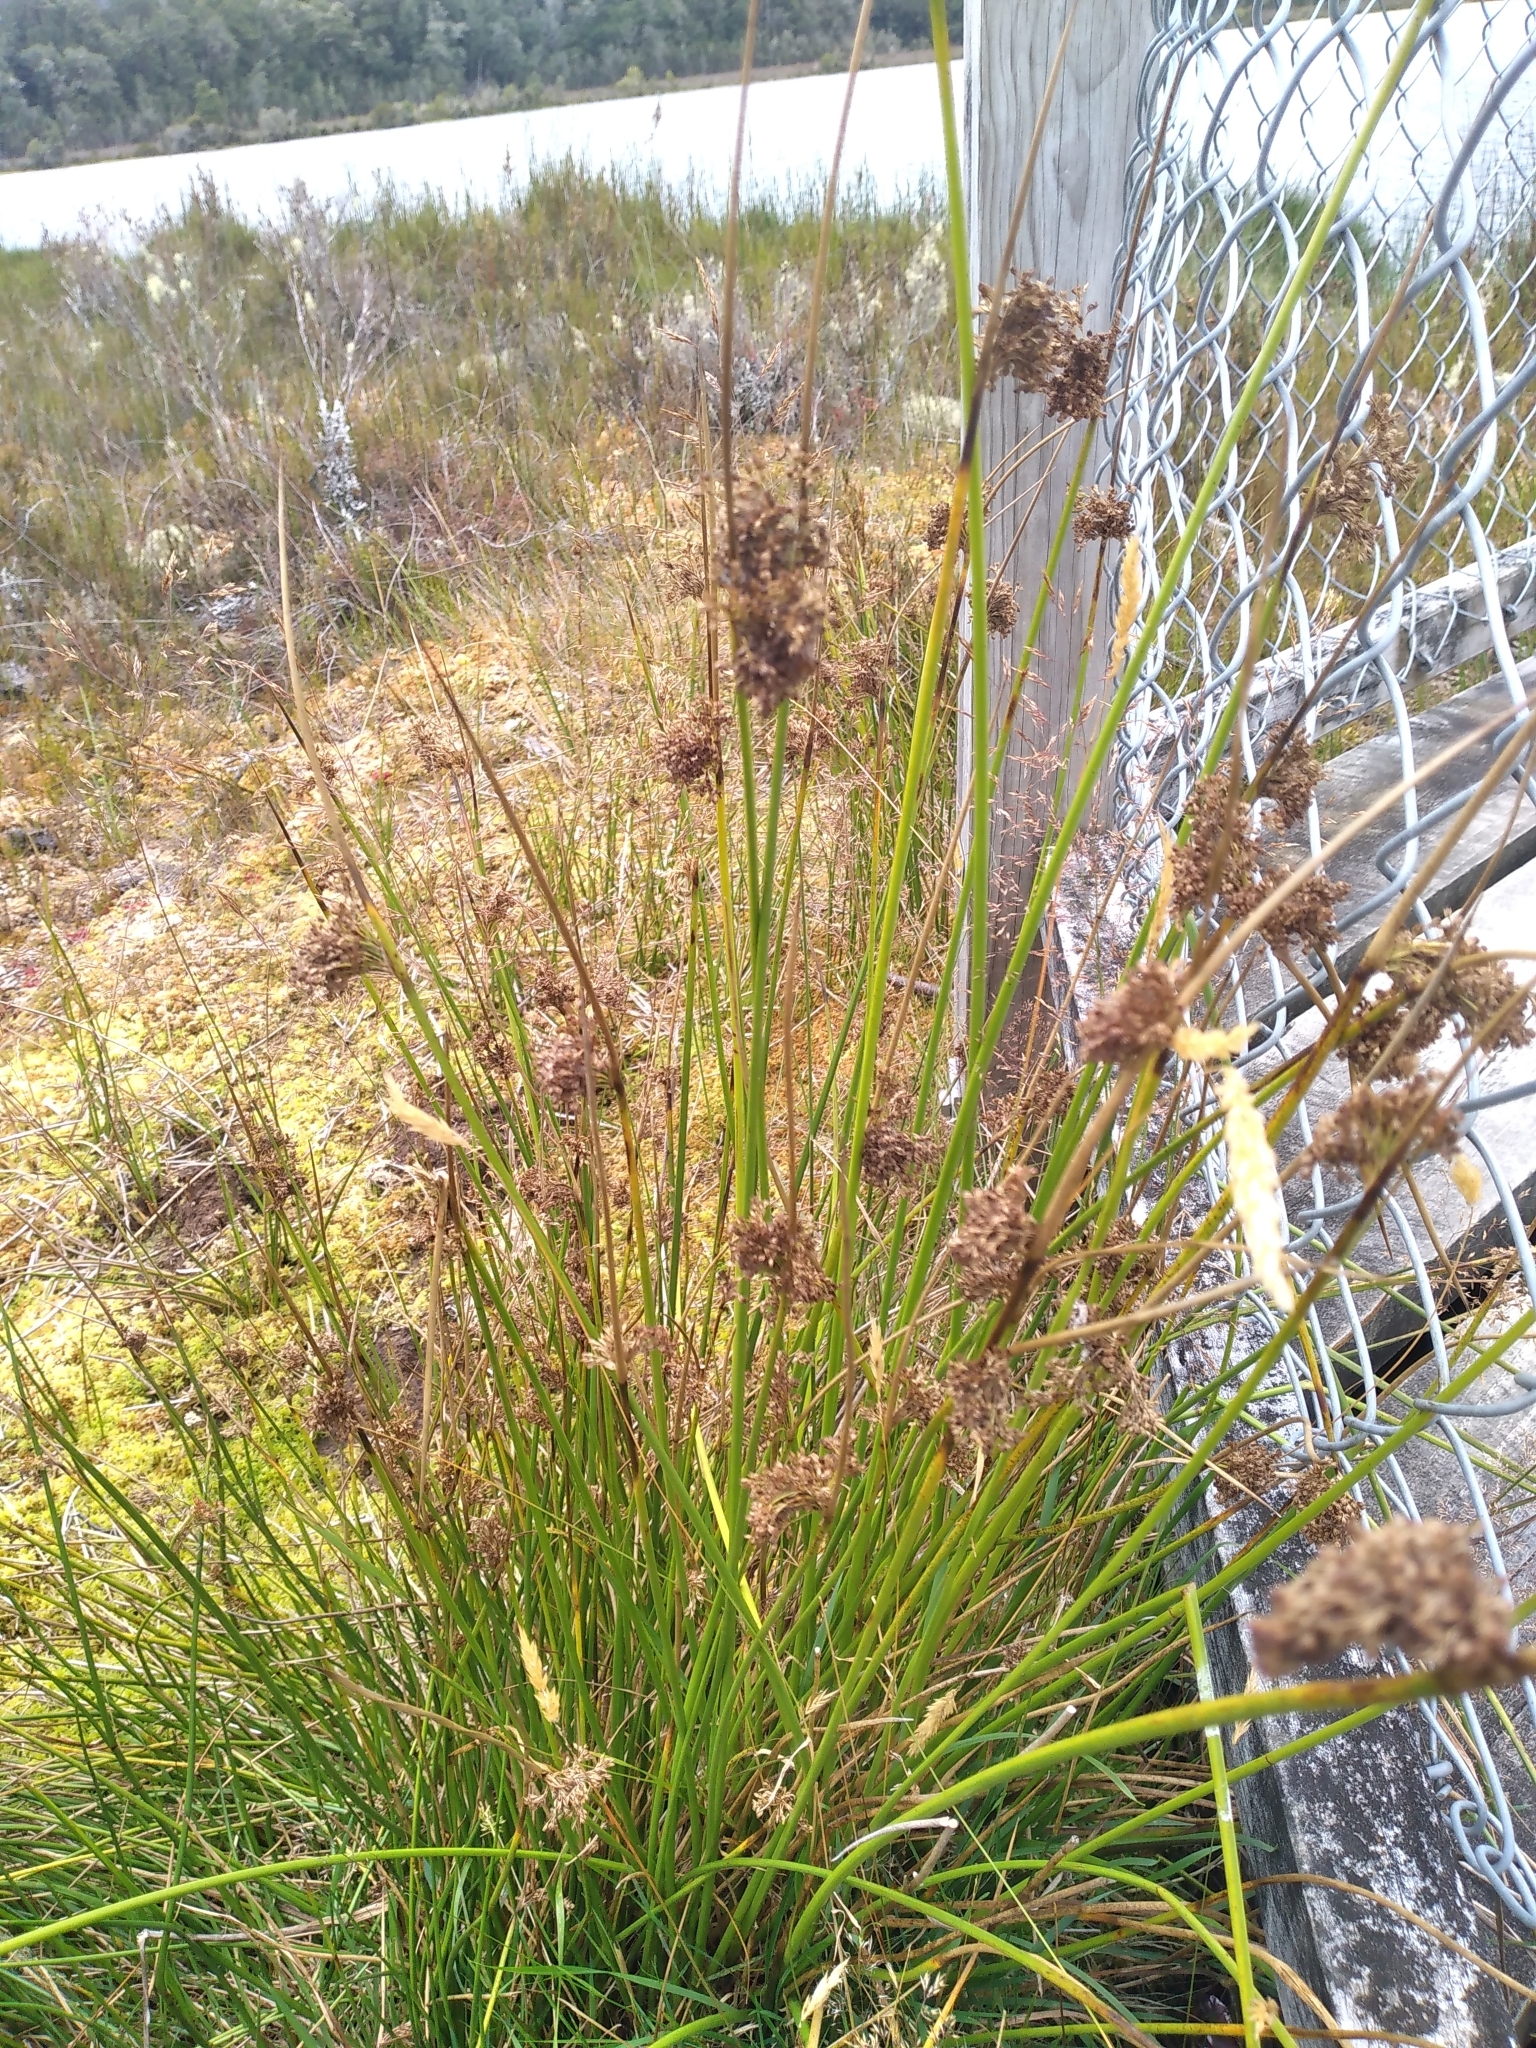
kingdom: Plantae
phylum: Tracheophyta
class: Liliopsida
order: Poales
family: Juncaceae
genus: Juncus
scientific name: Juncus effusus
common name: Soft rush
